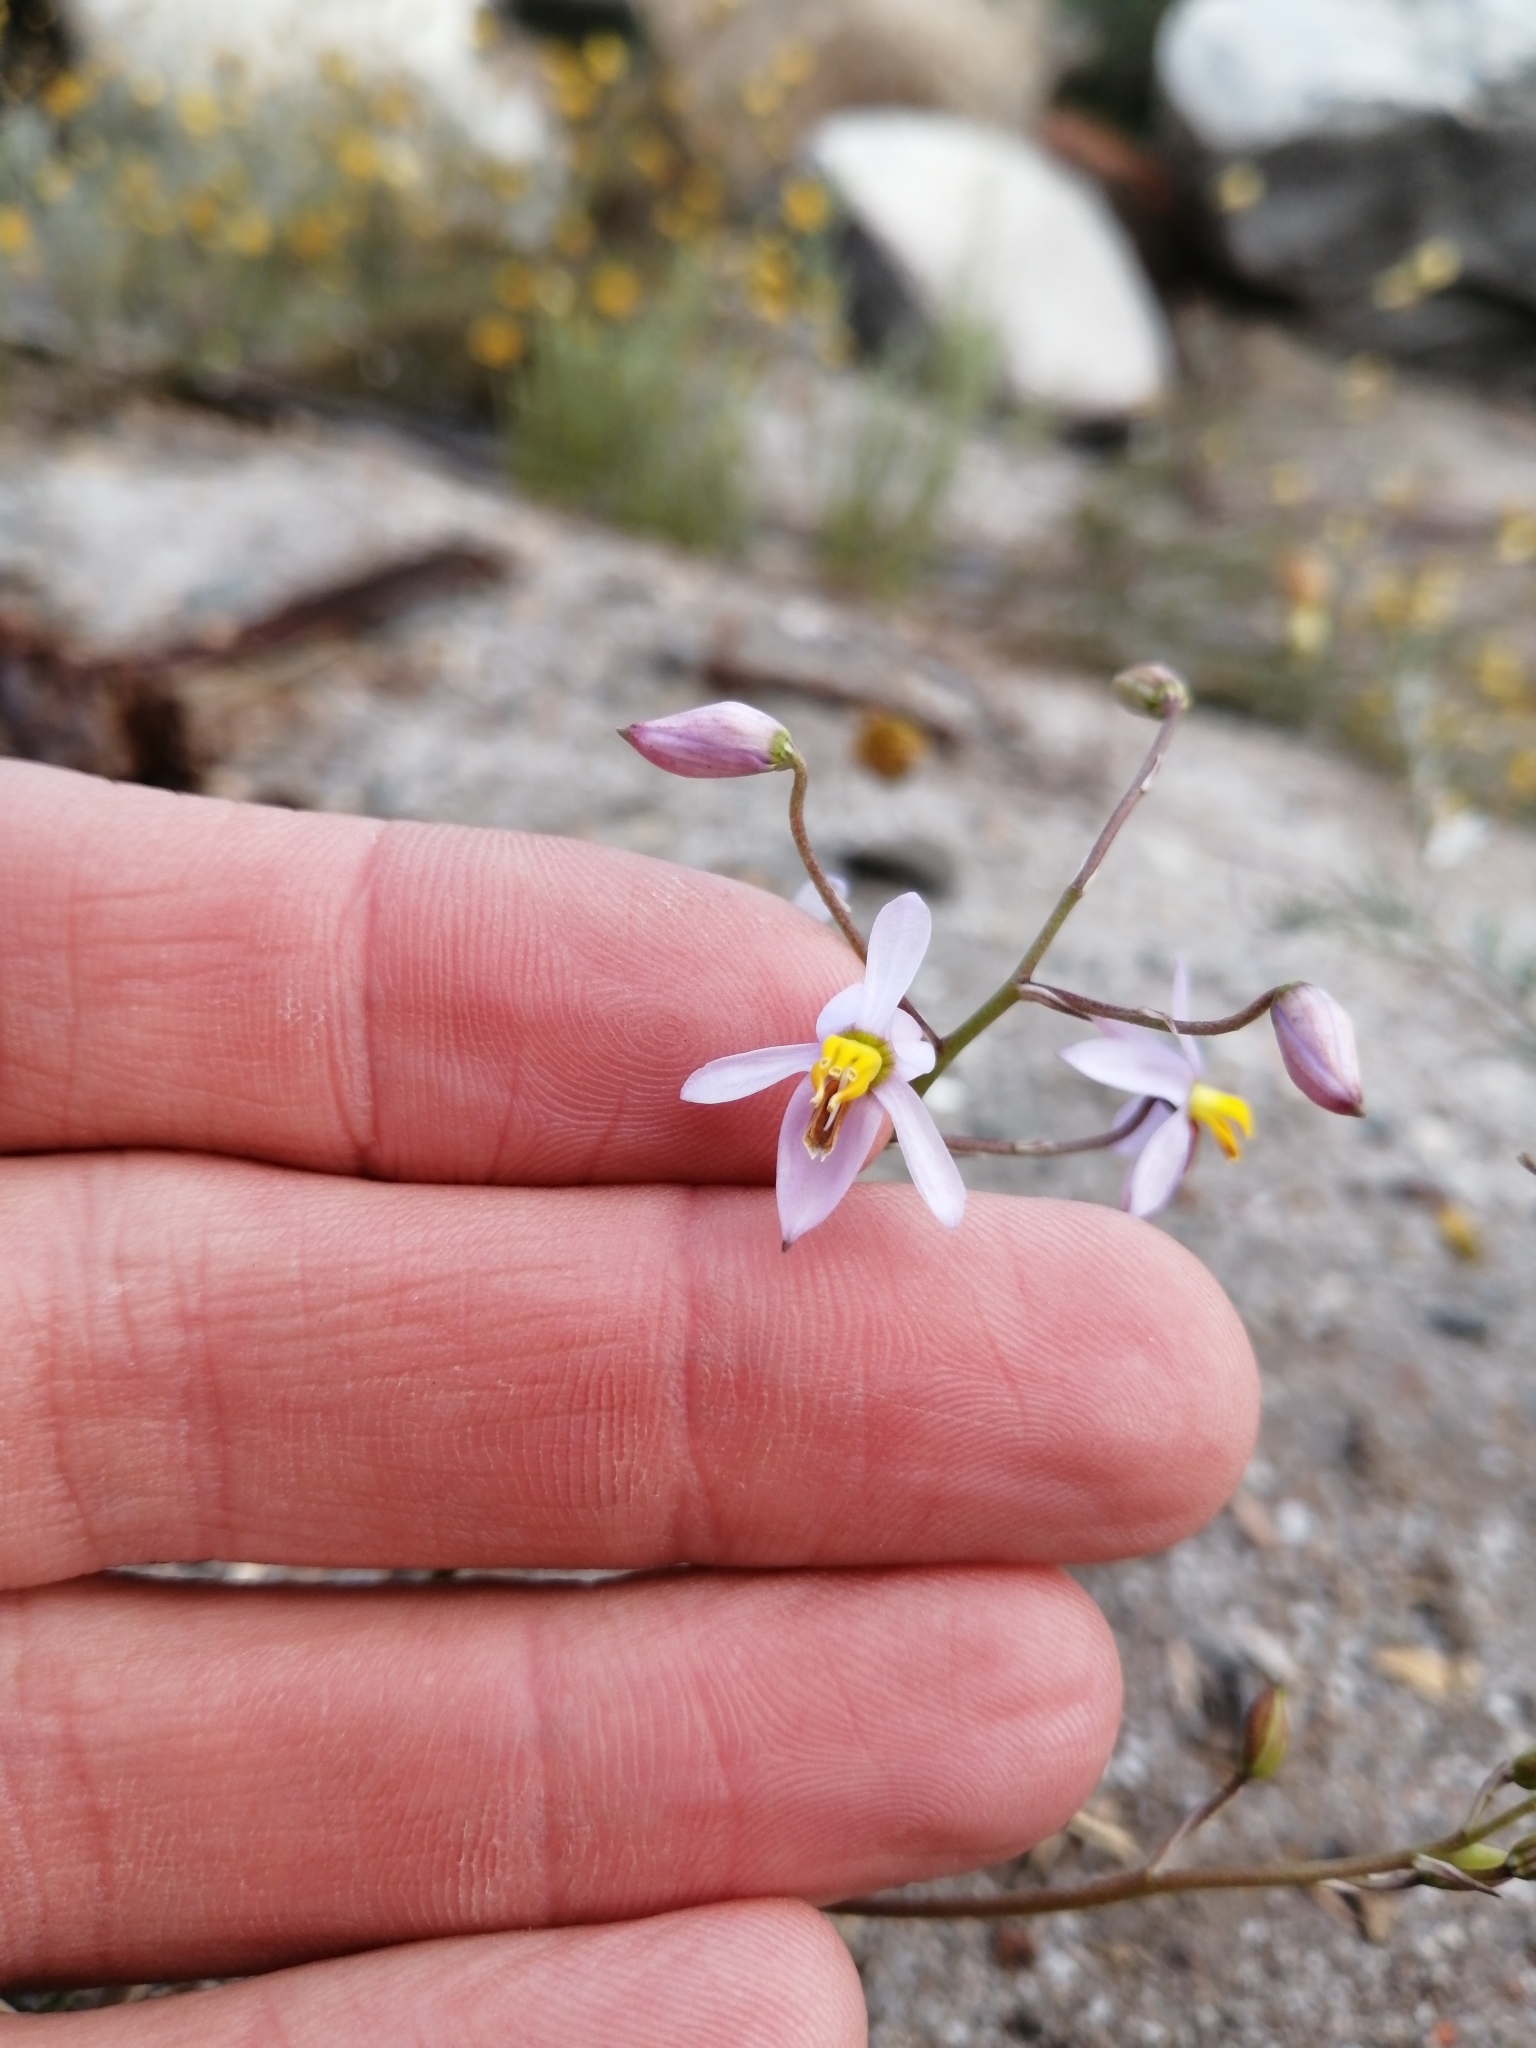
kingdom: Plantae
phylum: Tracheophyta
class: Liliopsida
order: Asparagales
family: Tecophilaeaceae
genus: Cyanella
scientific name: Cyanella hyacinthoides
